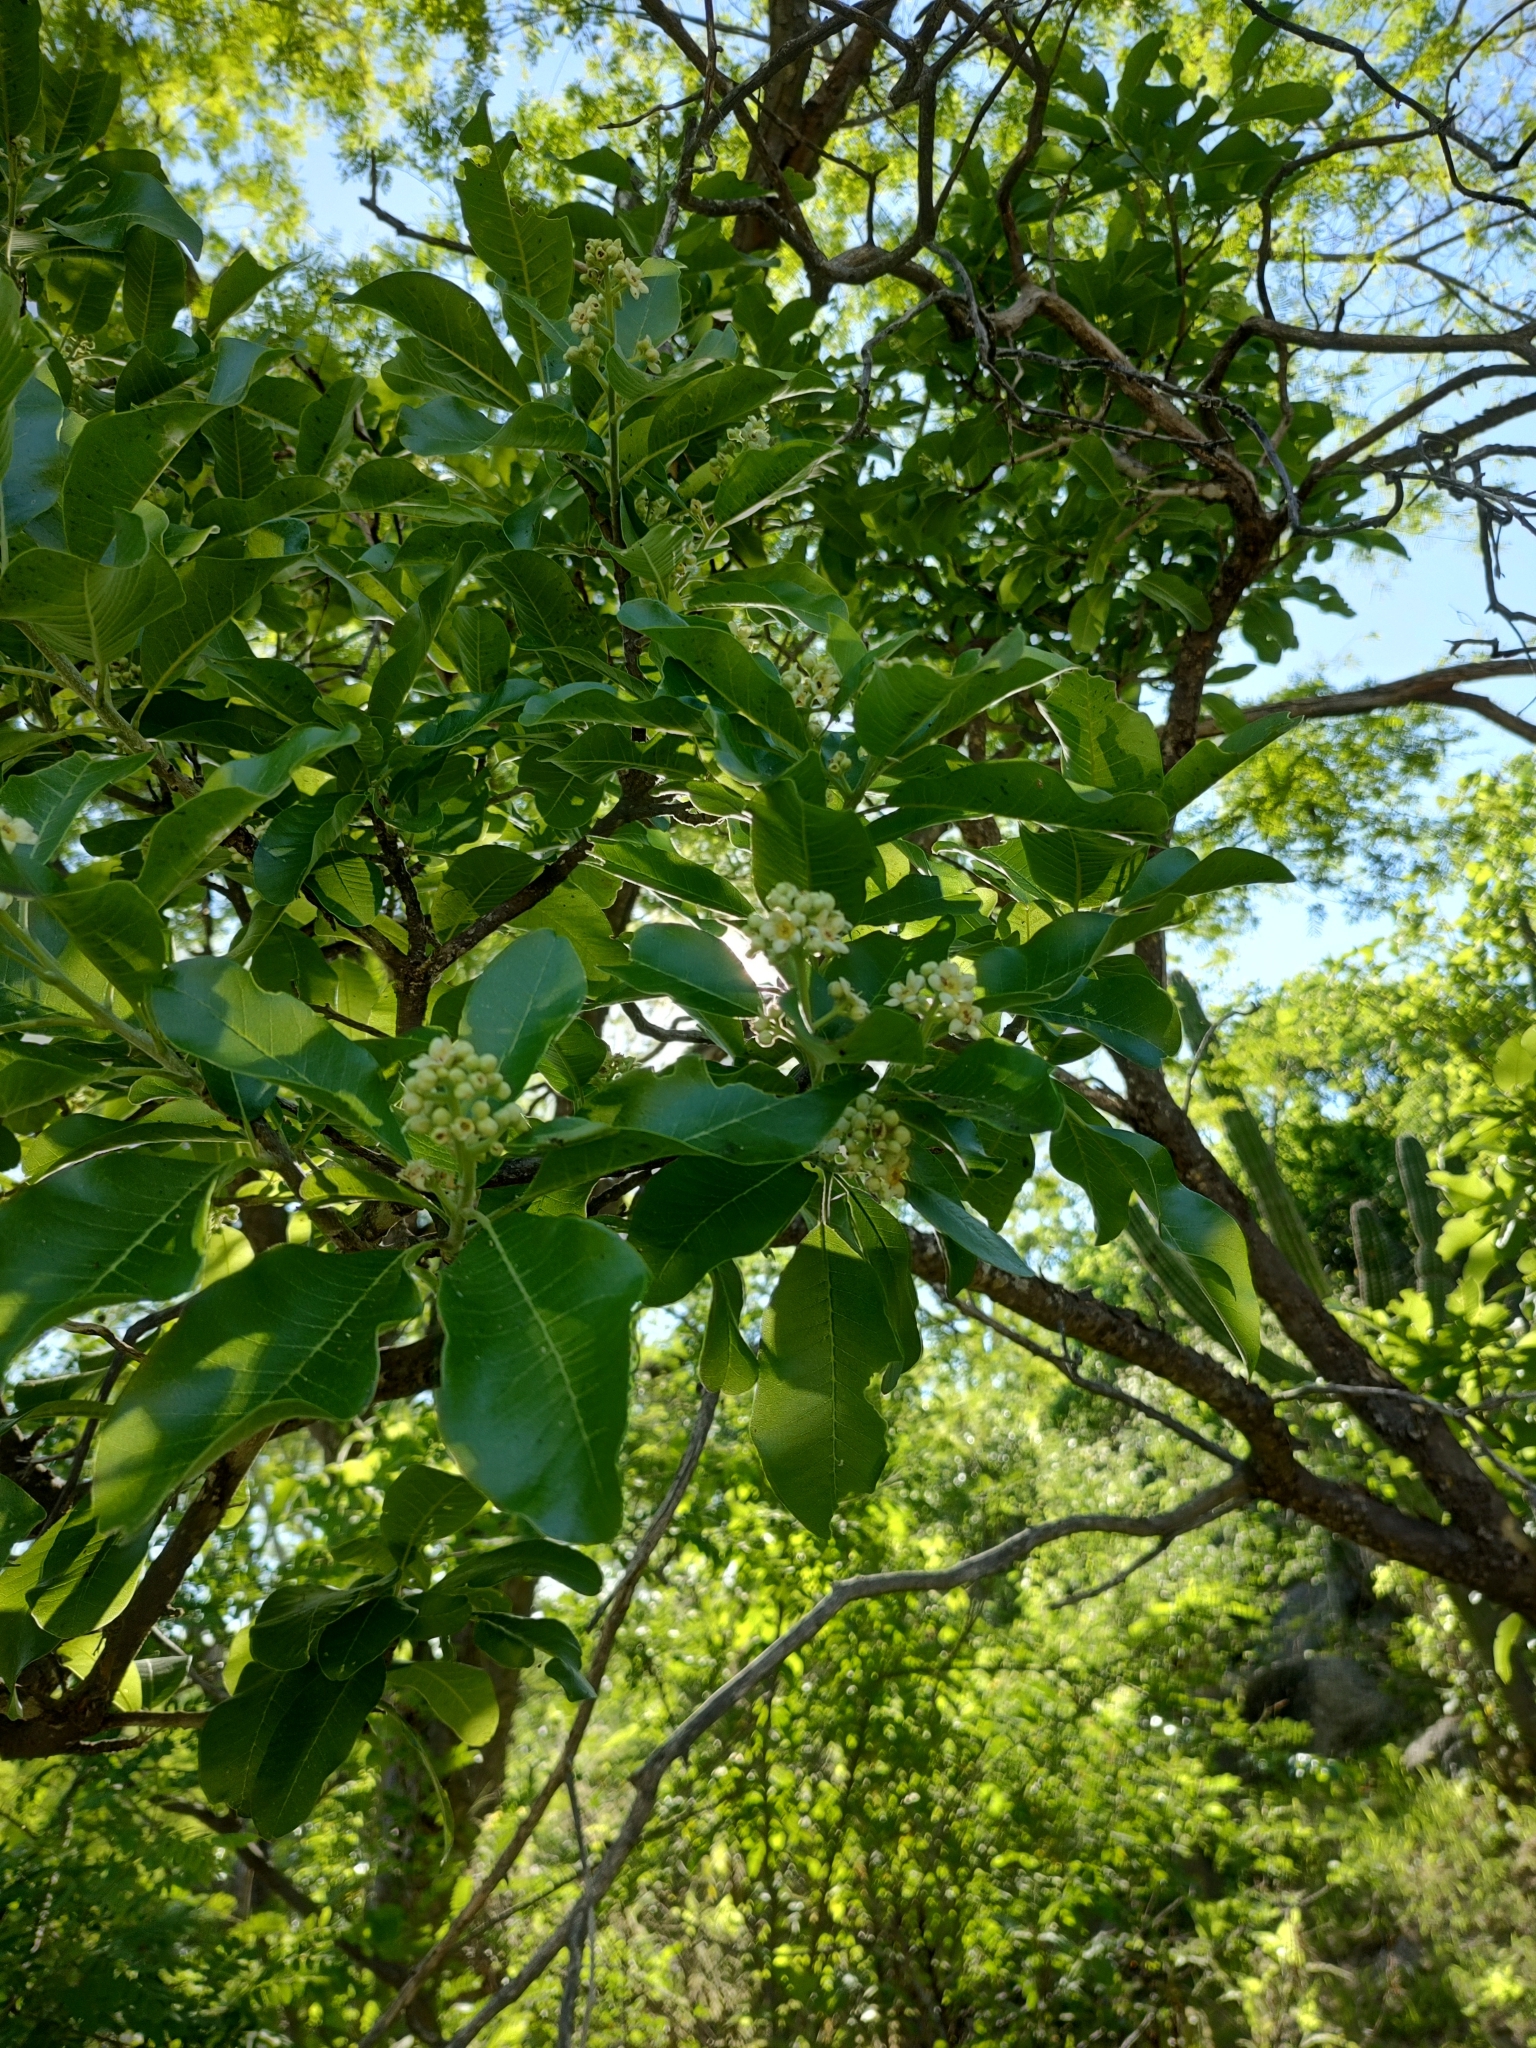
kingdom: Plantae
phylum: Tracheophyta
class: Magnoliopsida
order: Sapindales
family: Rutaceae
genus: Esenbeckia
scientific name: Esenbeckia flava
